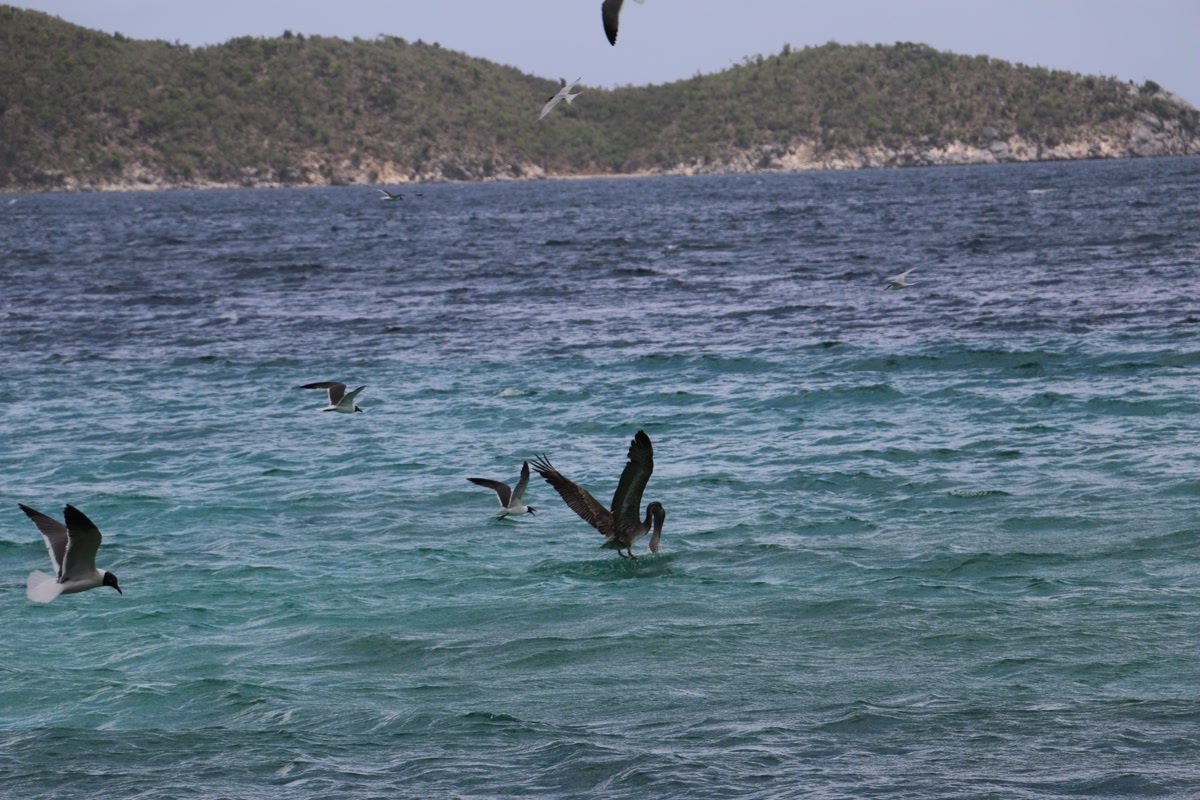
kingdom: Animalia
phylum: Chordata
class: Aves
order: Pelecaniformes
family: Pelecanidae
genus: Pelecanus
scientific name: Pelecanus occidentalis
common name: Brown pelican
